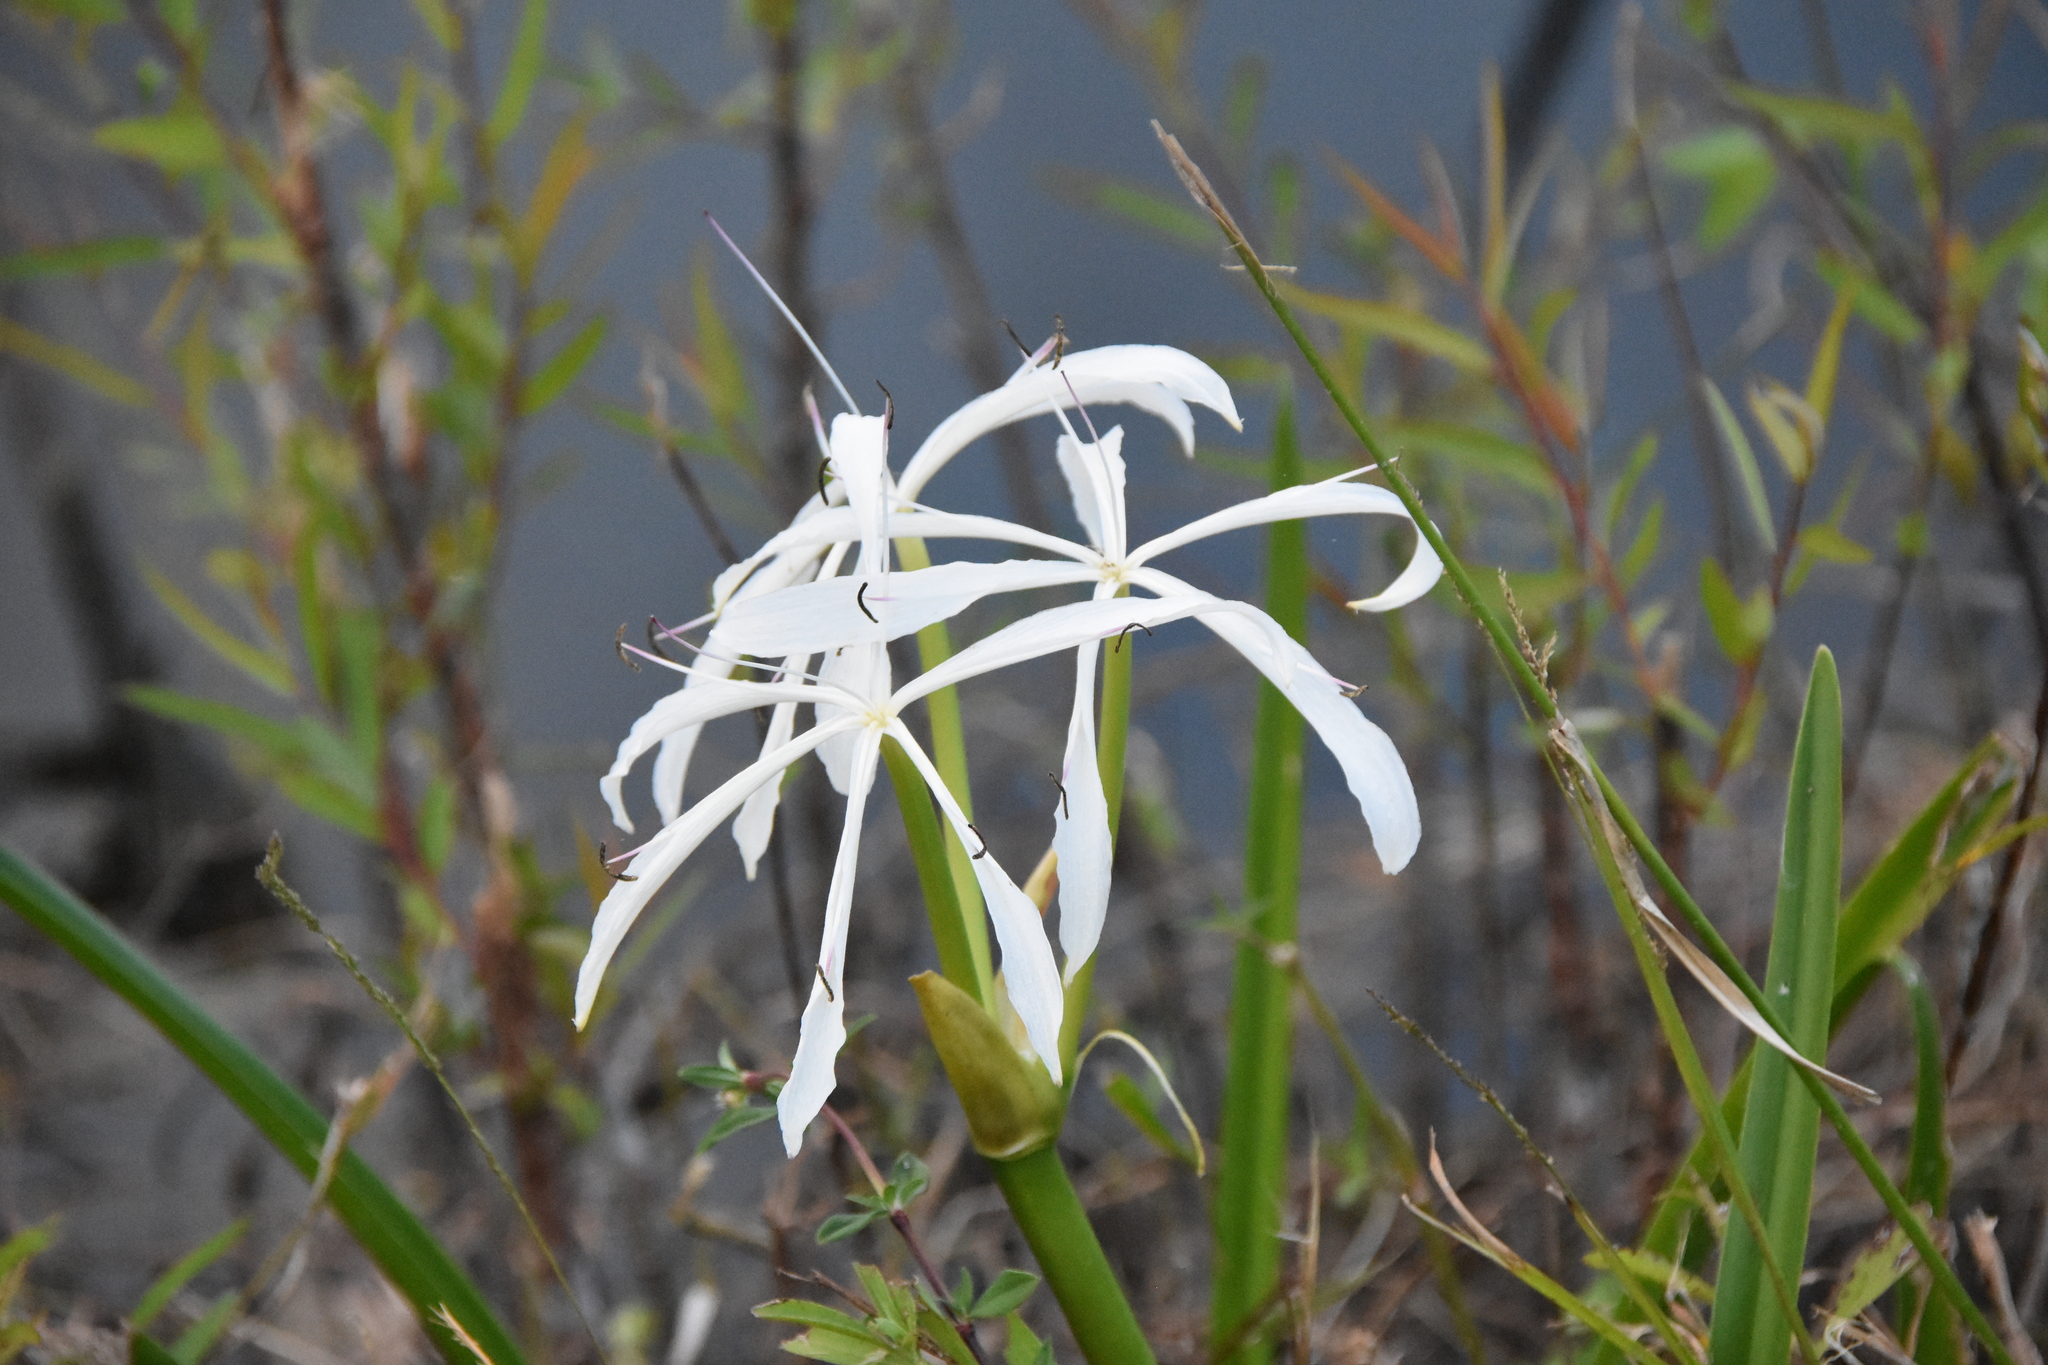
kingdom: Plantae
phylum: Tracheophyta
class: Liliopsida
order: Asparagales
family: Amaryllidaceae
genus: Crinum
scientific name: Crinum americanum
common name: Florida swamp-lily
